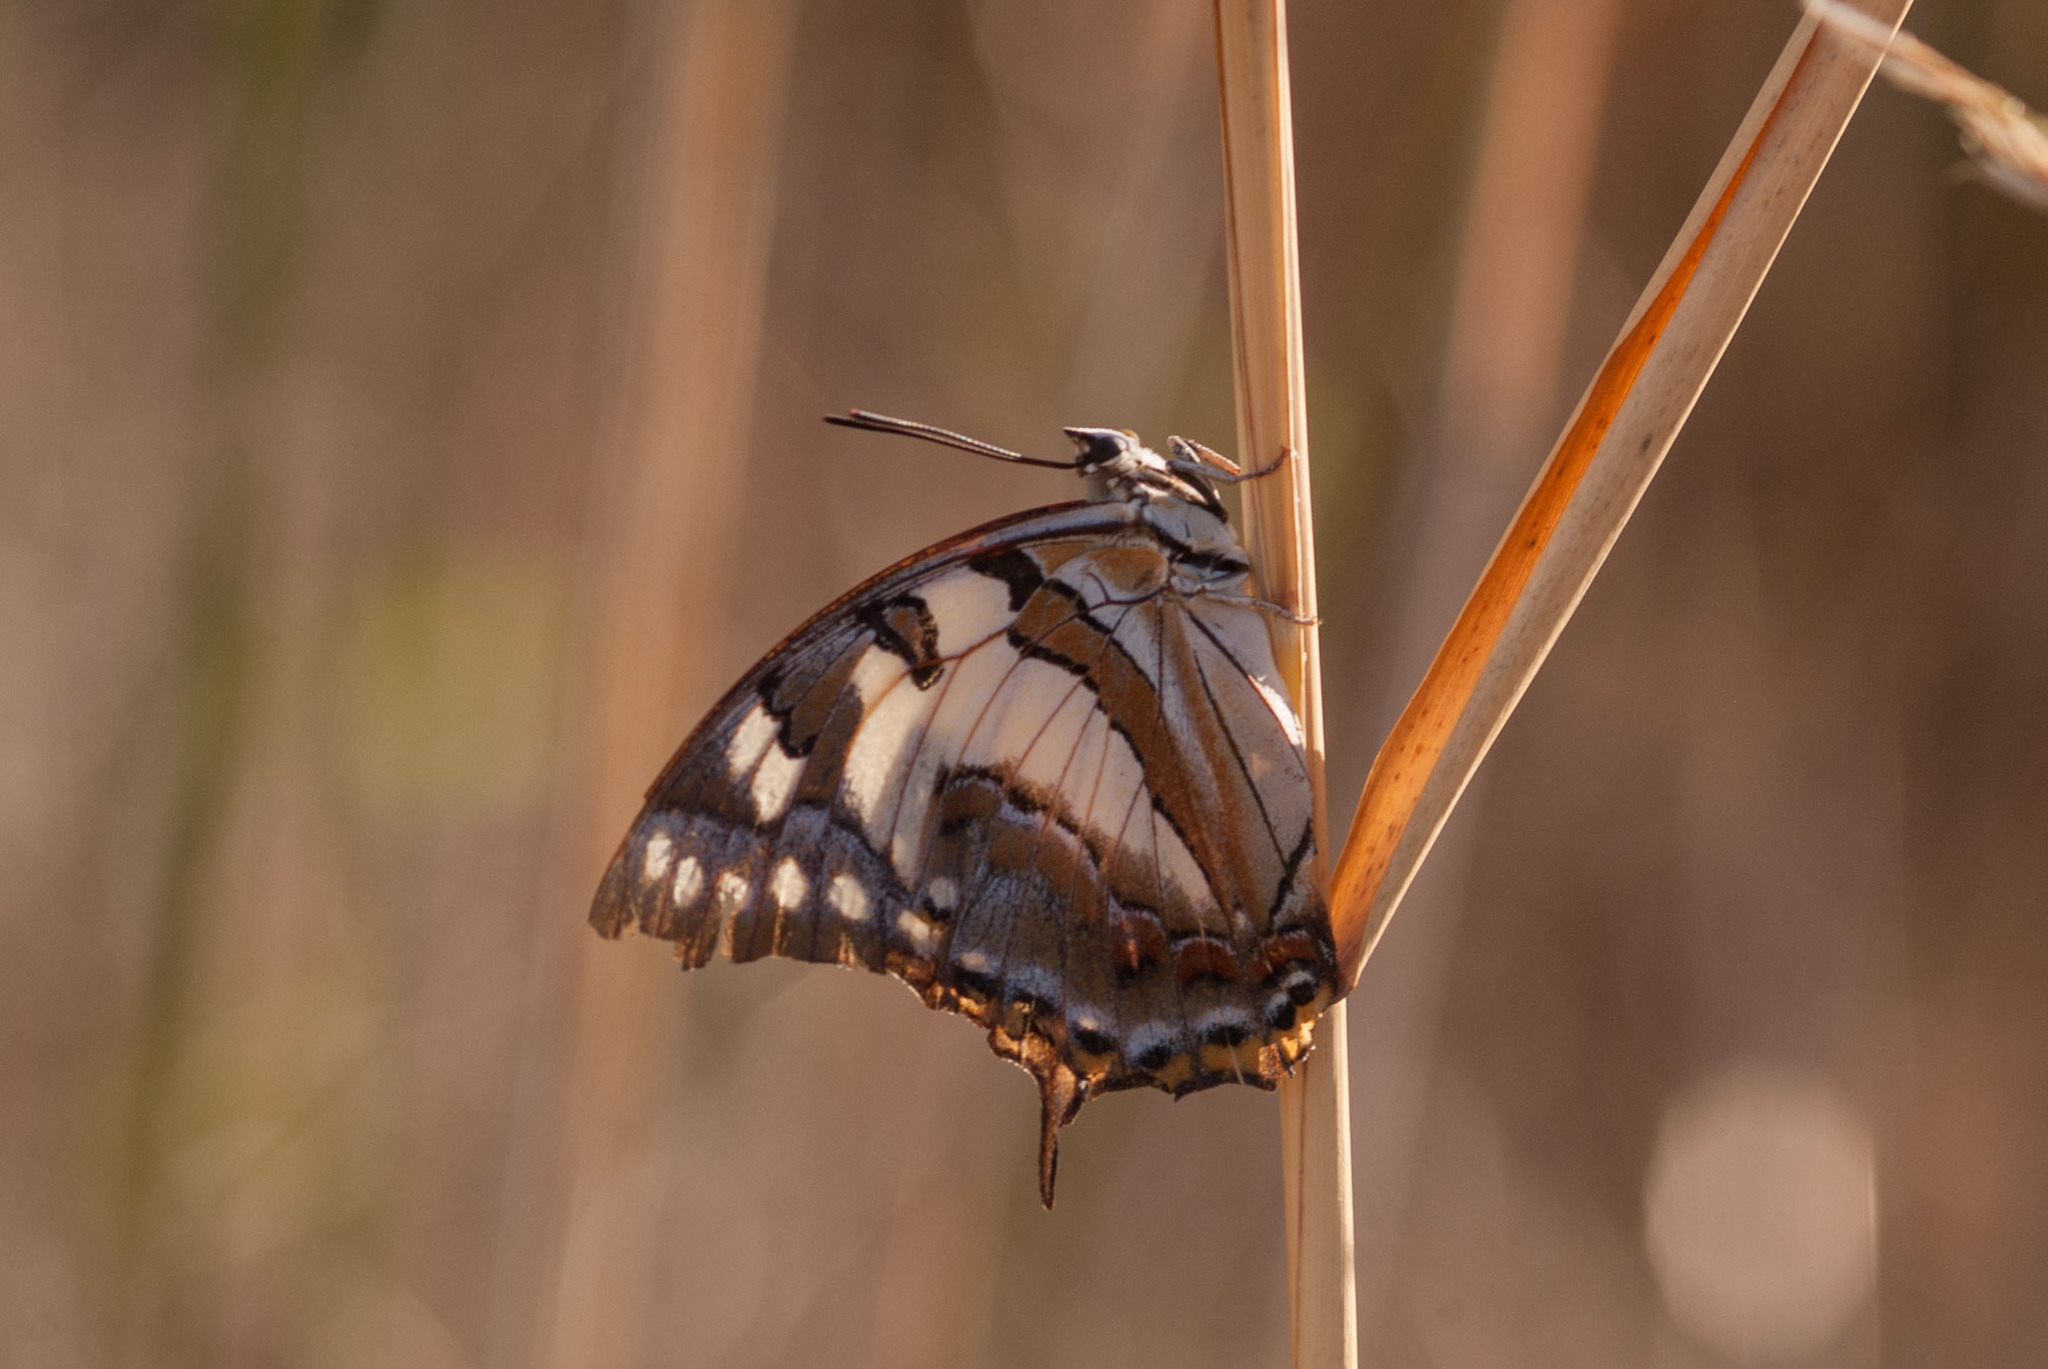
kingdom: Animalia
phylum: Arthropoda
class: Insecta
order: Lepidoptera
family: Nymphalidae
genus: Charaxes
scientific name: Charaxes
